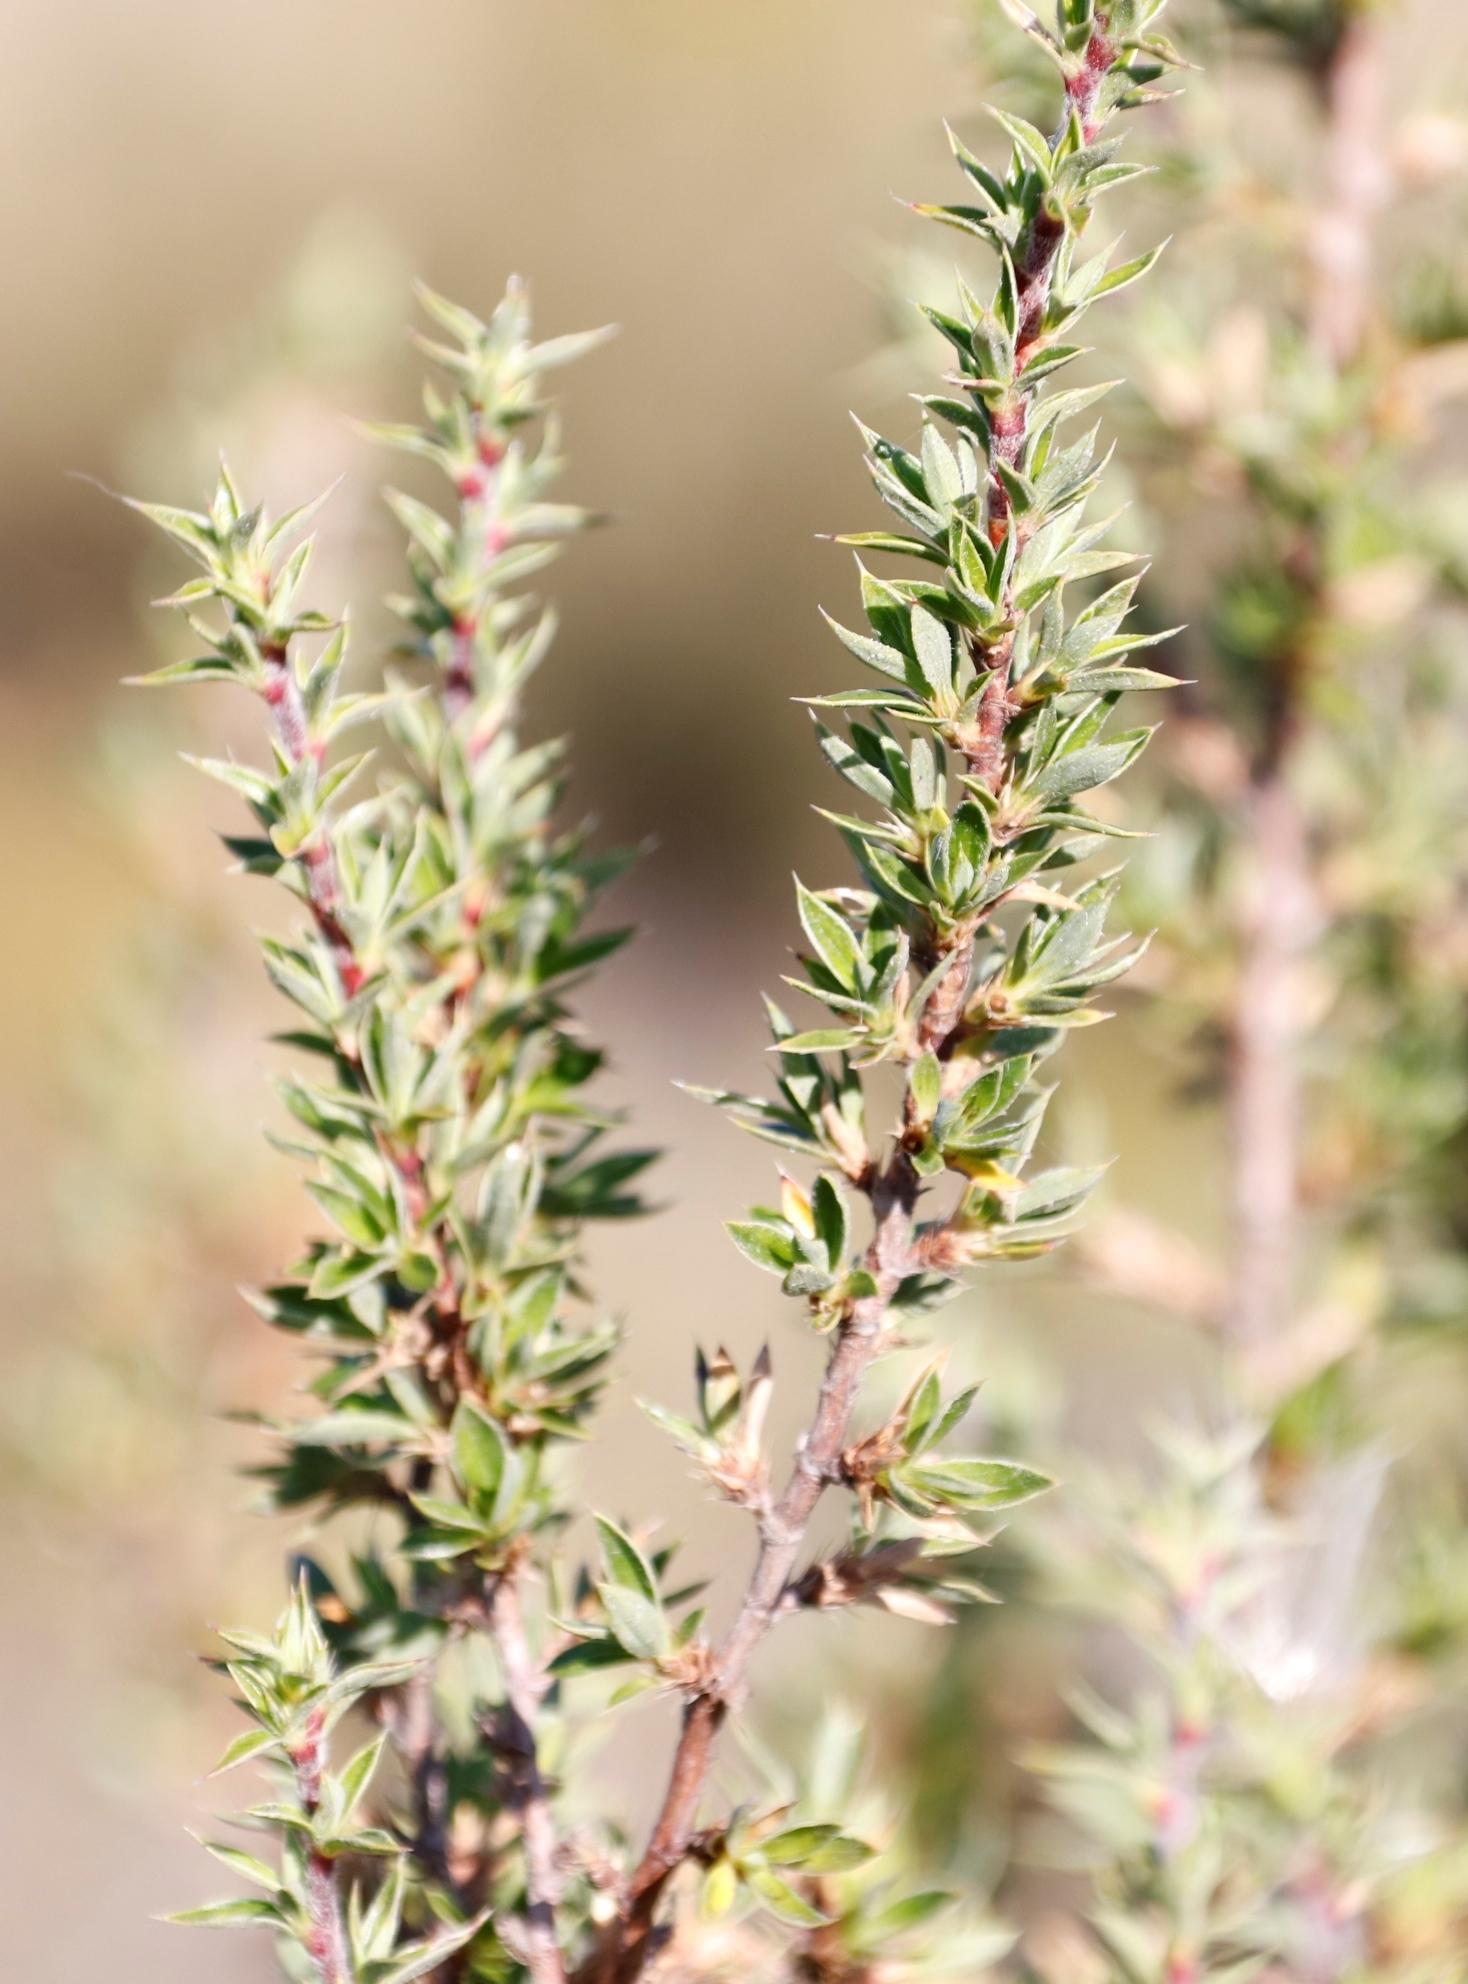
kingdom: Plantae
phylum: Tracheophyta
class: Magnoliopsida
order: Rosales
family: Rosaceae
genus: Cliffortia
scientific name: Cliffortia ruscifolia
